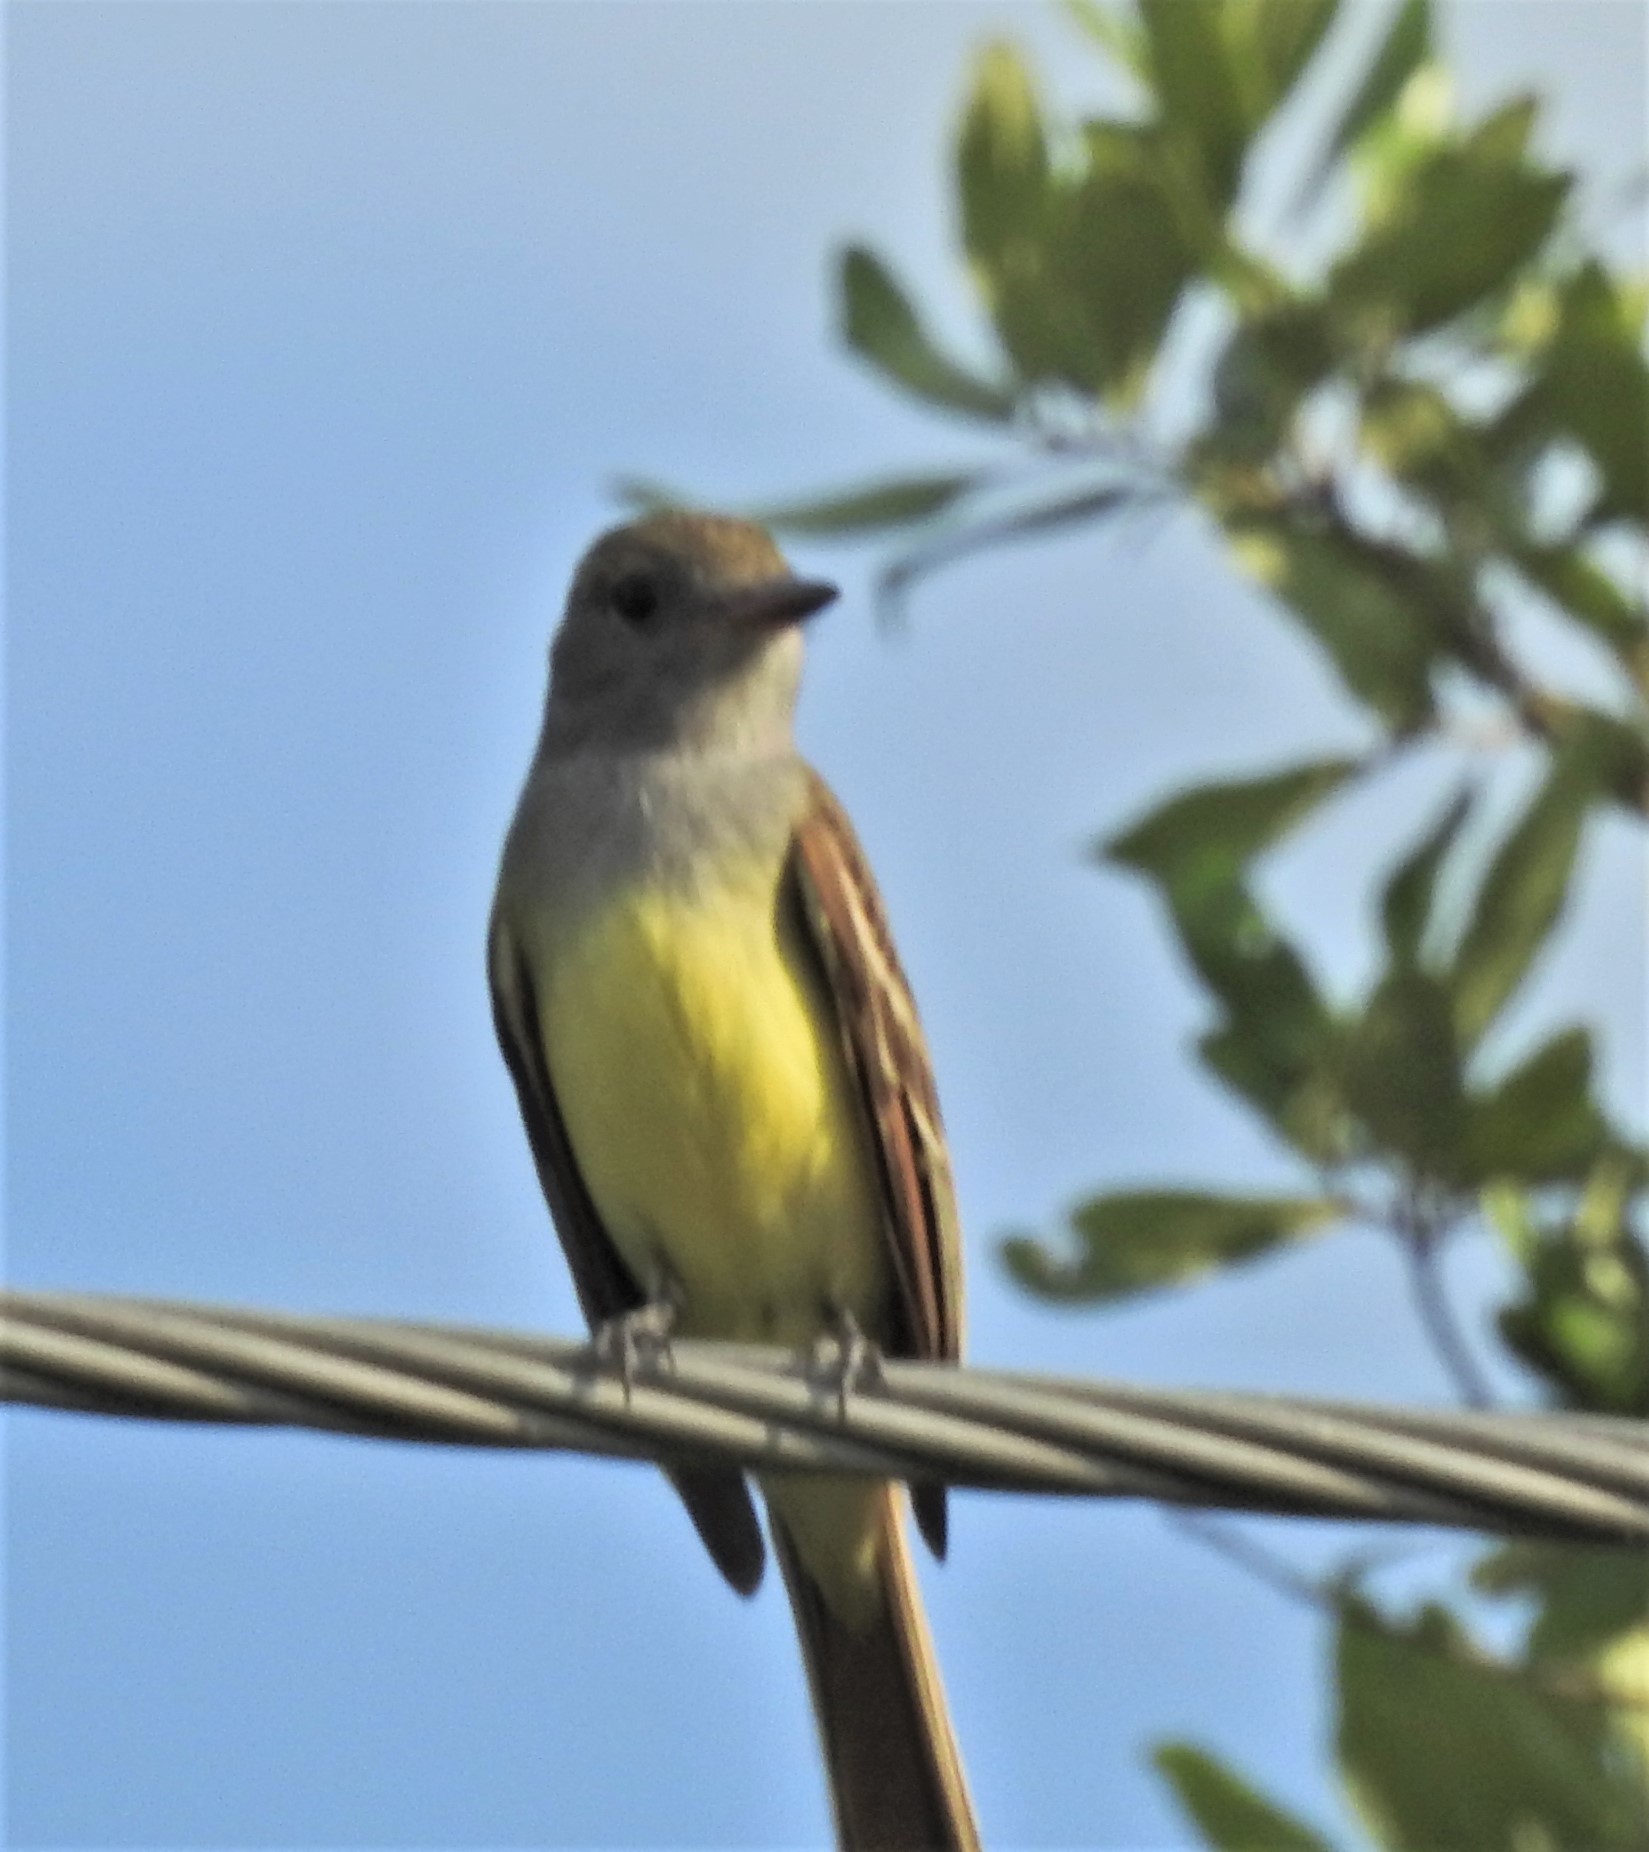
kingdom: Animalia
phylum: Chordata
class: Aves
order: Passeriformes
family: Tyrannidae
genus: Myiarchus
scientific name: Myiarchus crinitus
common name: Great crested flycatcher
